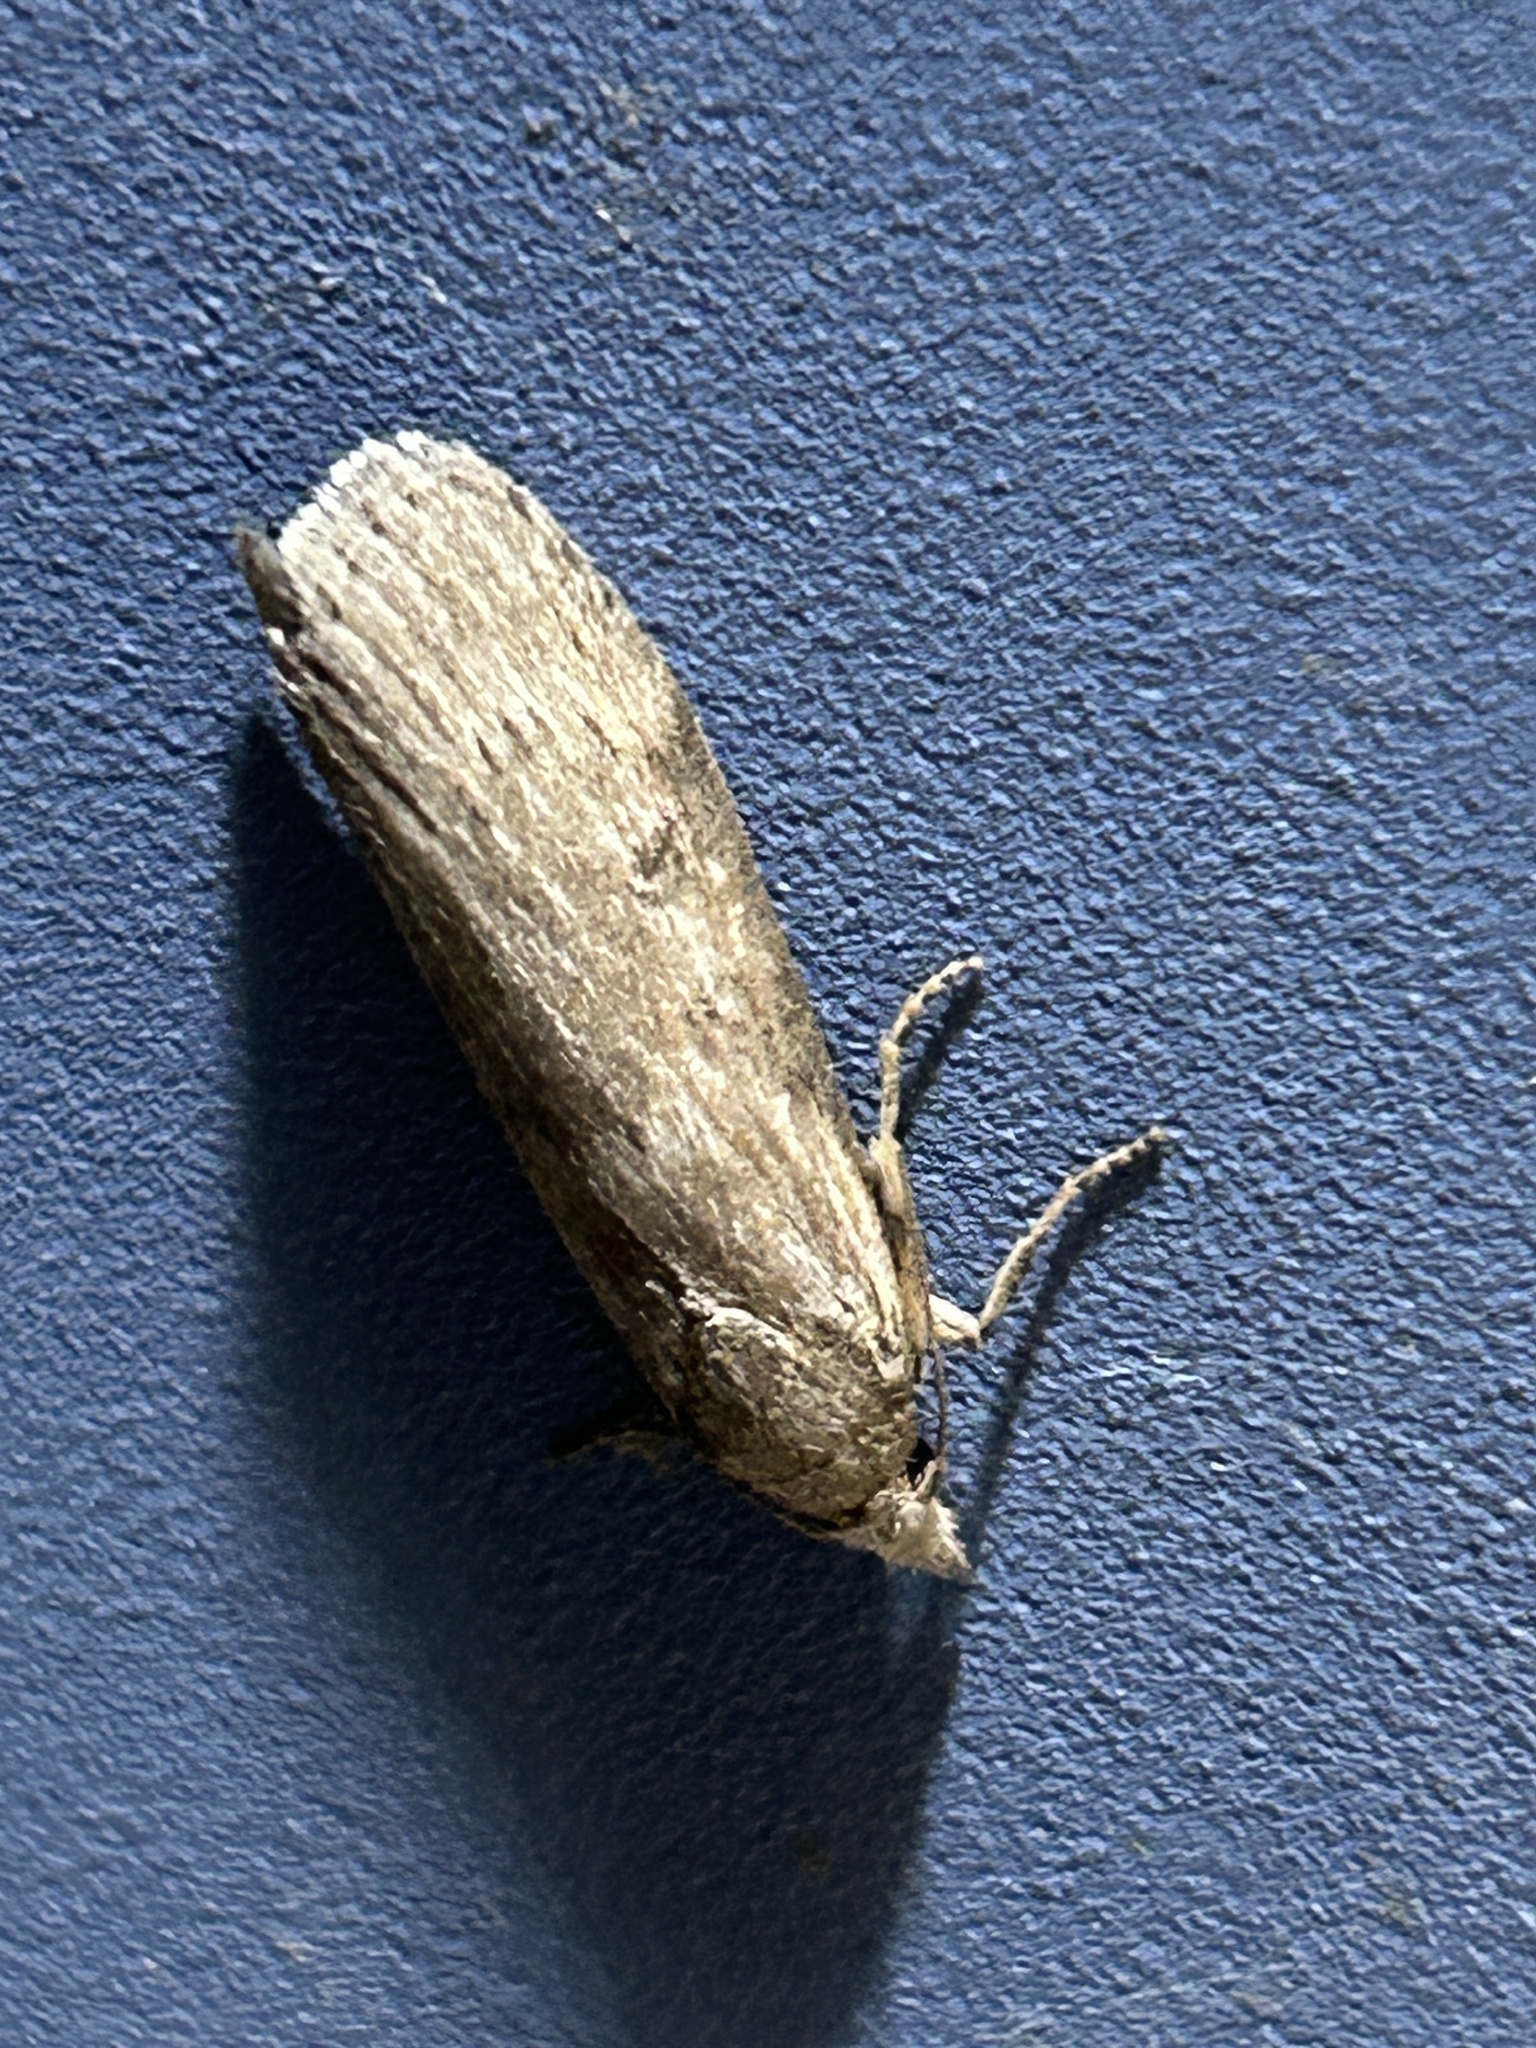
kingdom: Animalia
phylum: Arthropoda
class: Insecta
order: Lepidoptera
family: Pyralidae
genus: Lamoria
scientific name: Lamoria anella
